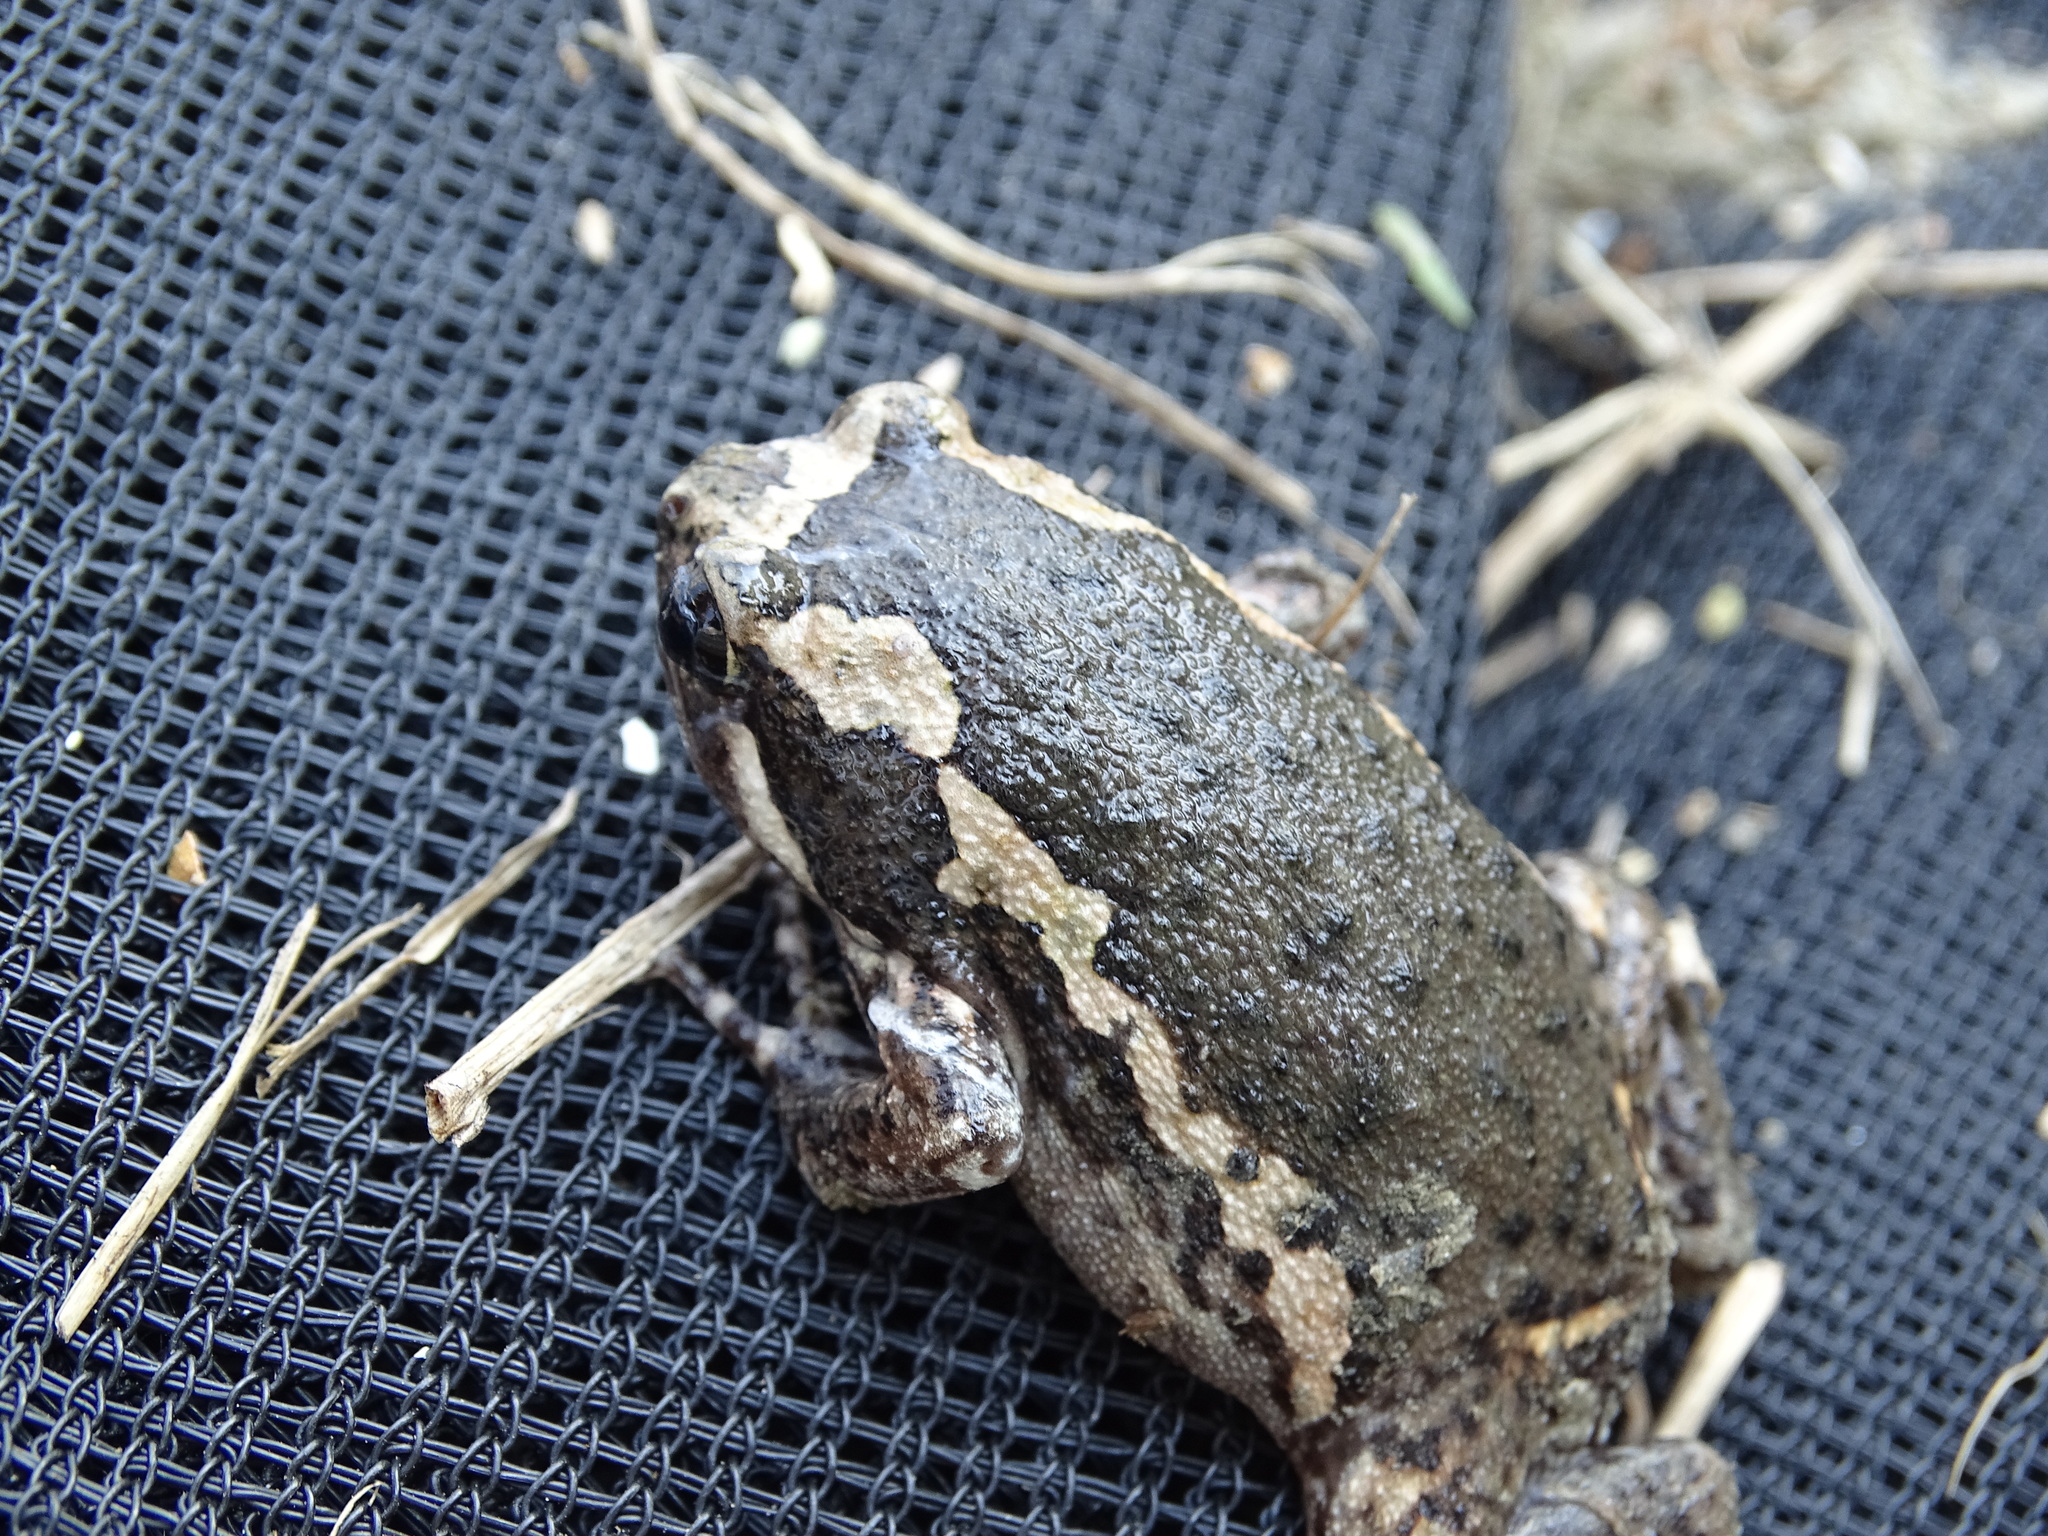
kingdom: Animalia
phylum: Chordata
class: Amphibia
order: Anura
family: Microhylidae
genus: Kaloula
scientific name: Kaloula pulchra
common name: Common,banded bullfrog
